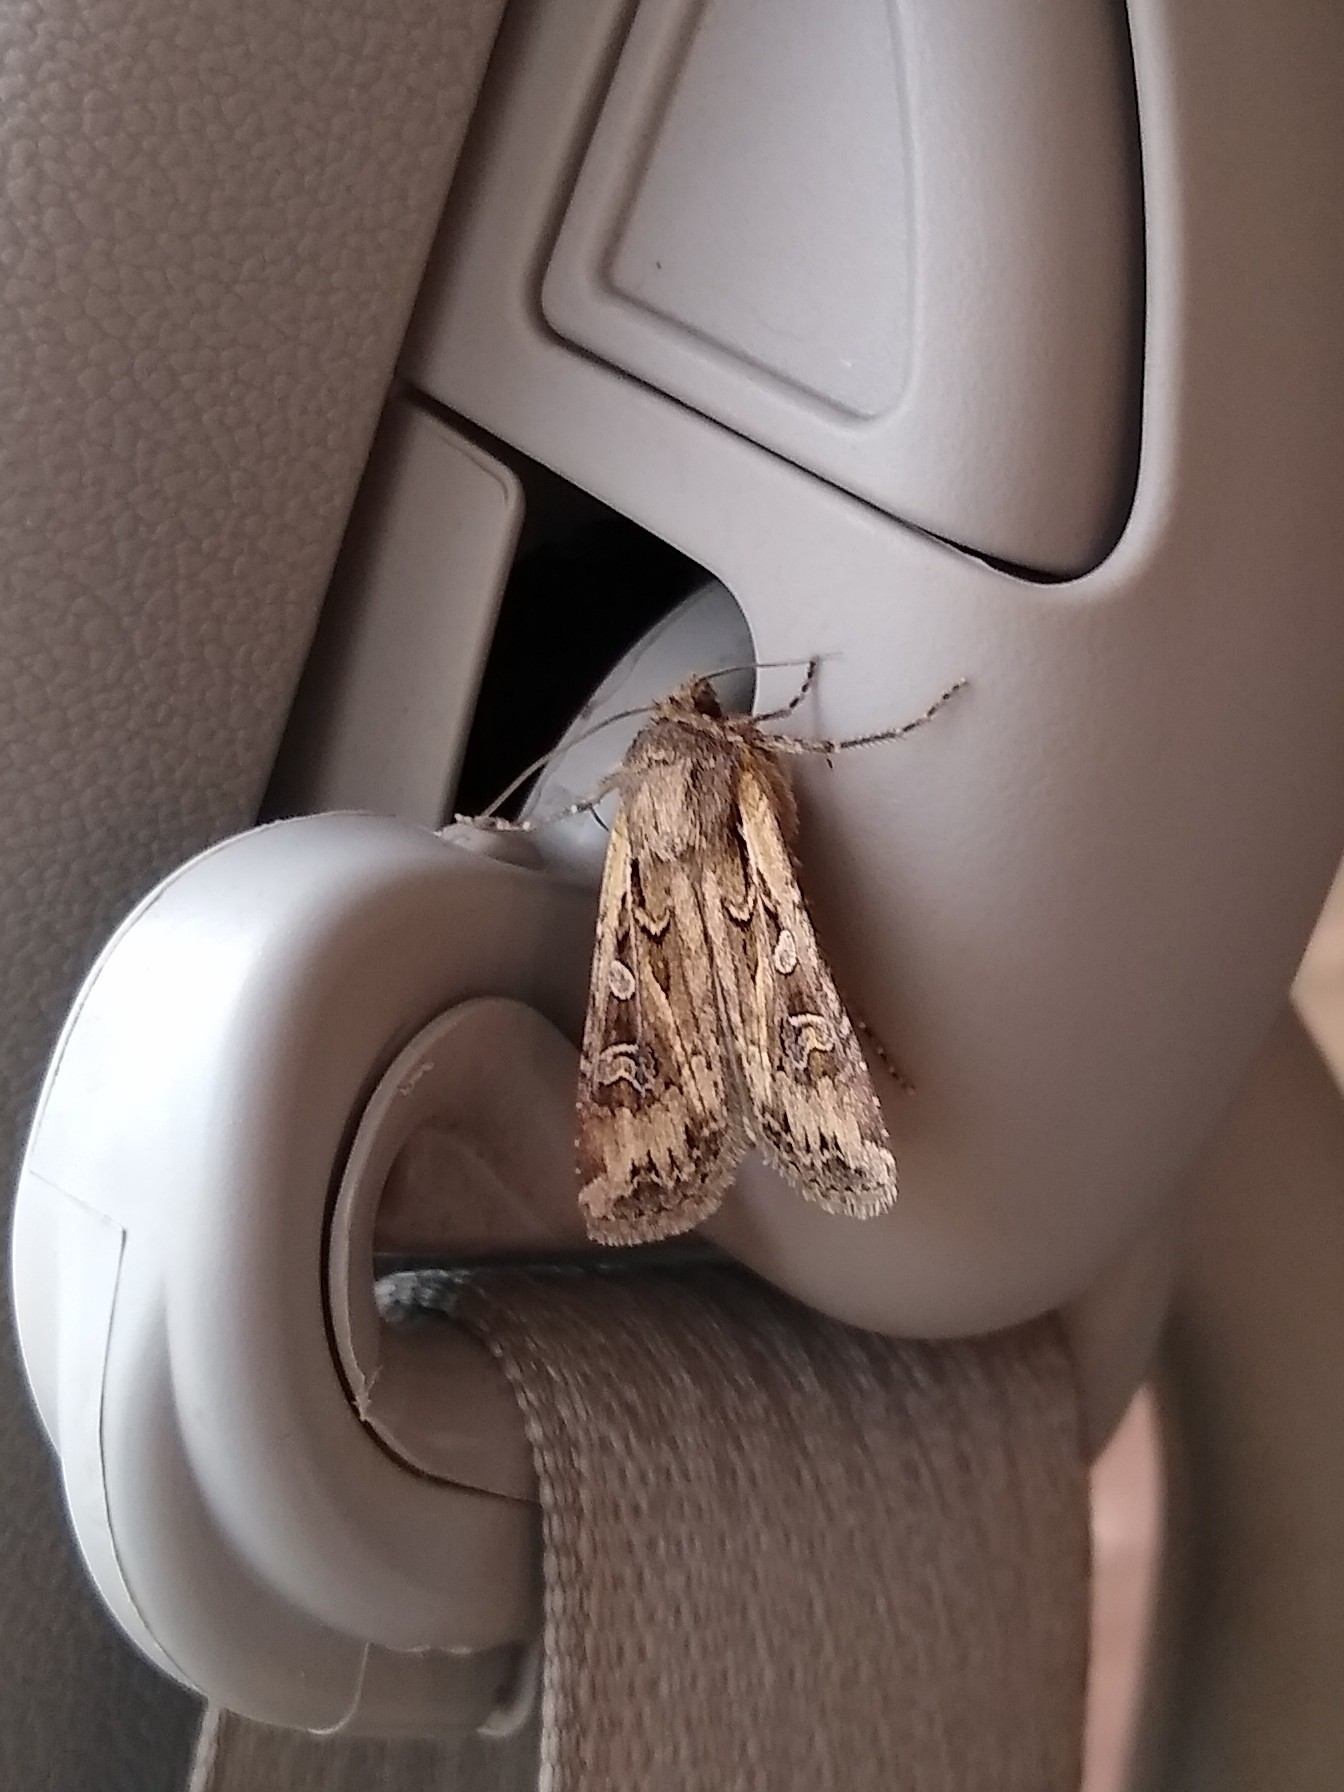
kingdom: Animalia
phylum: Arthropoda
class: Insecta
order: Lepidoptera
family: Noctuidae
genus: Euxoa
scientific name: Euxoa auxiliaris
